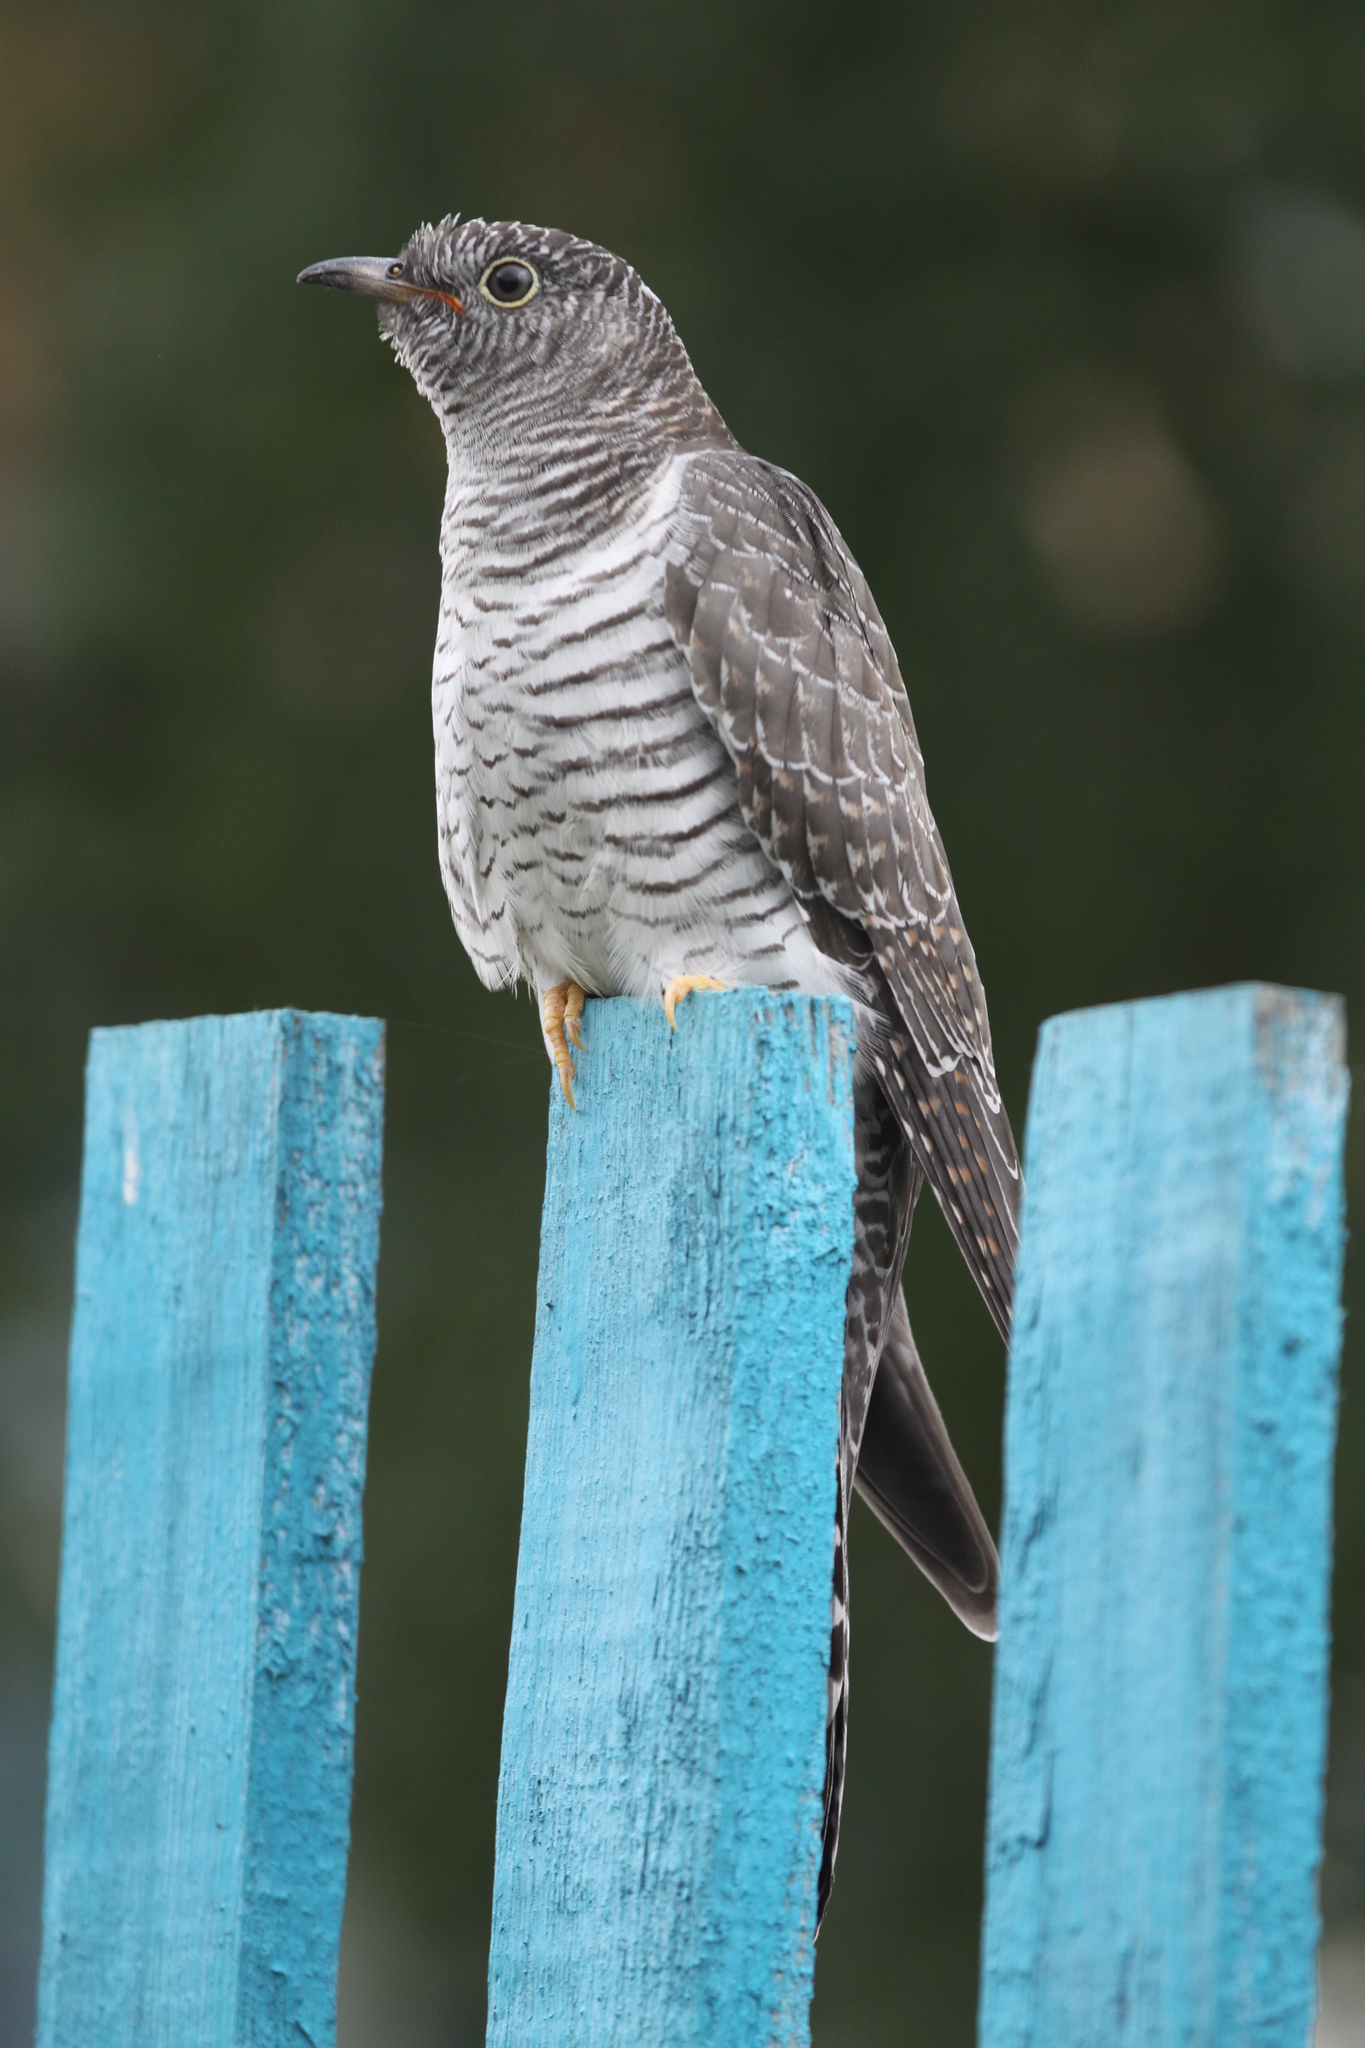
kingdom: Animalia
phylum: Chordata
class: Aves
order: Cuculiformes
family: Cuculidae
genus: Cuculus
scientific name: Cuculus canorus
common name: Common cuckoo
